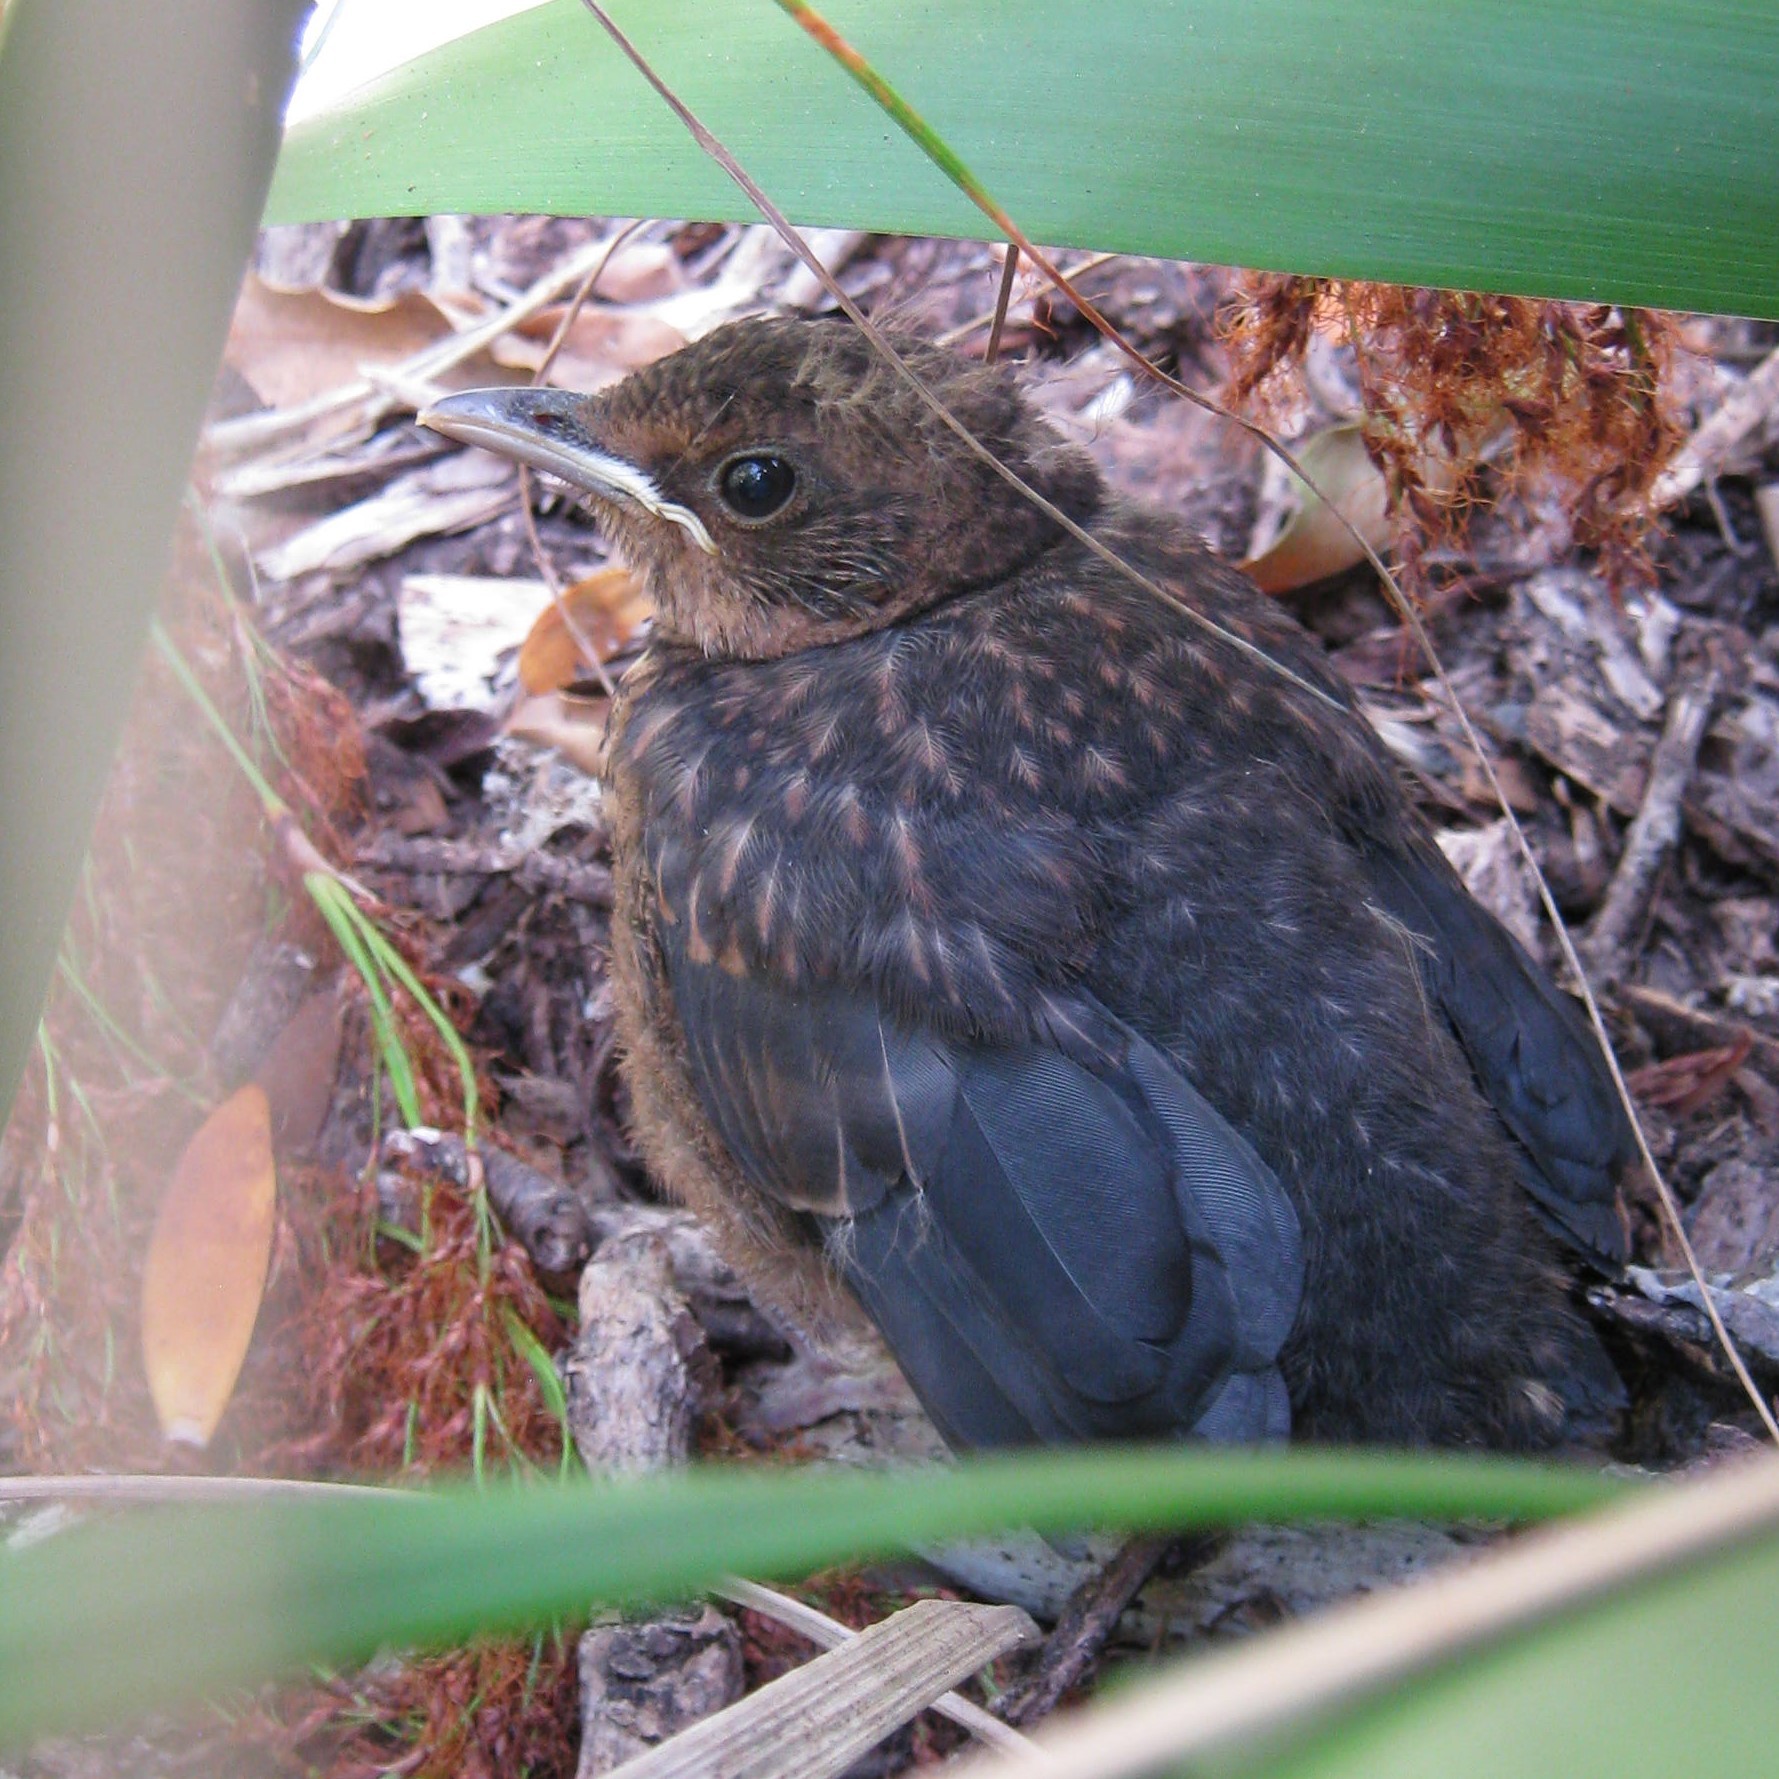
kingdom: Animalia
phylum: Chordata
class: Aves
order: Passeriformes
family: Turdidae
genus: Turdus
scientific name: Turdus merula
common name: Common blackbird
